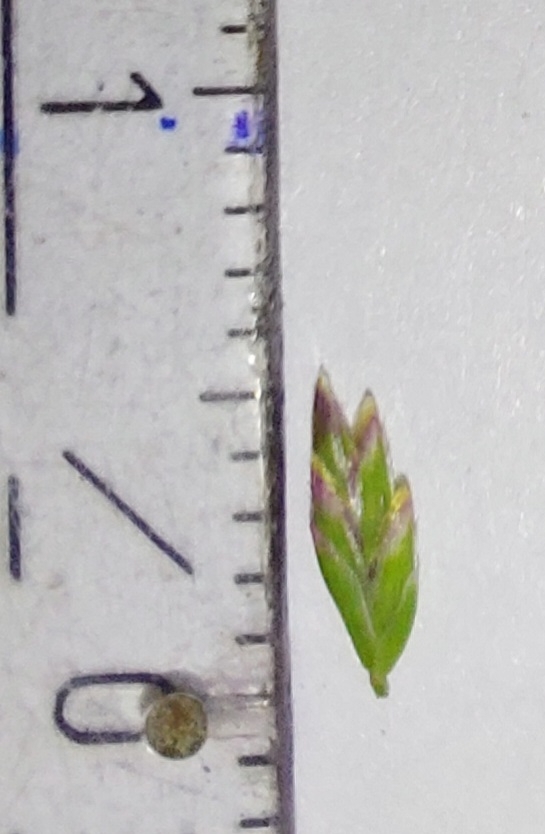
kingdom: Plantae
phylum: Tracheophyta
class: Liliopsida
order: Poales
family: Poaceae
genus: Poa
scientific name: Poa annua
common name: Annual bluegrass
